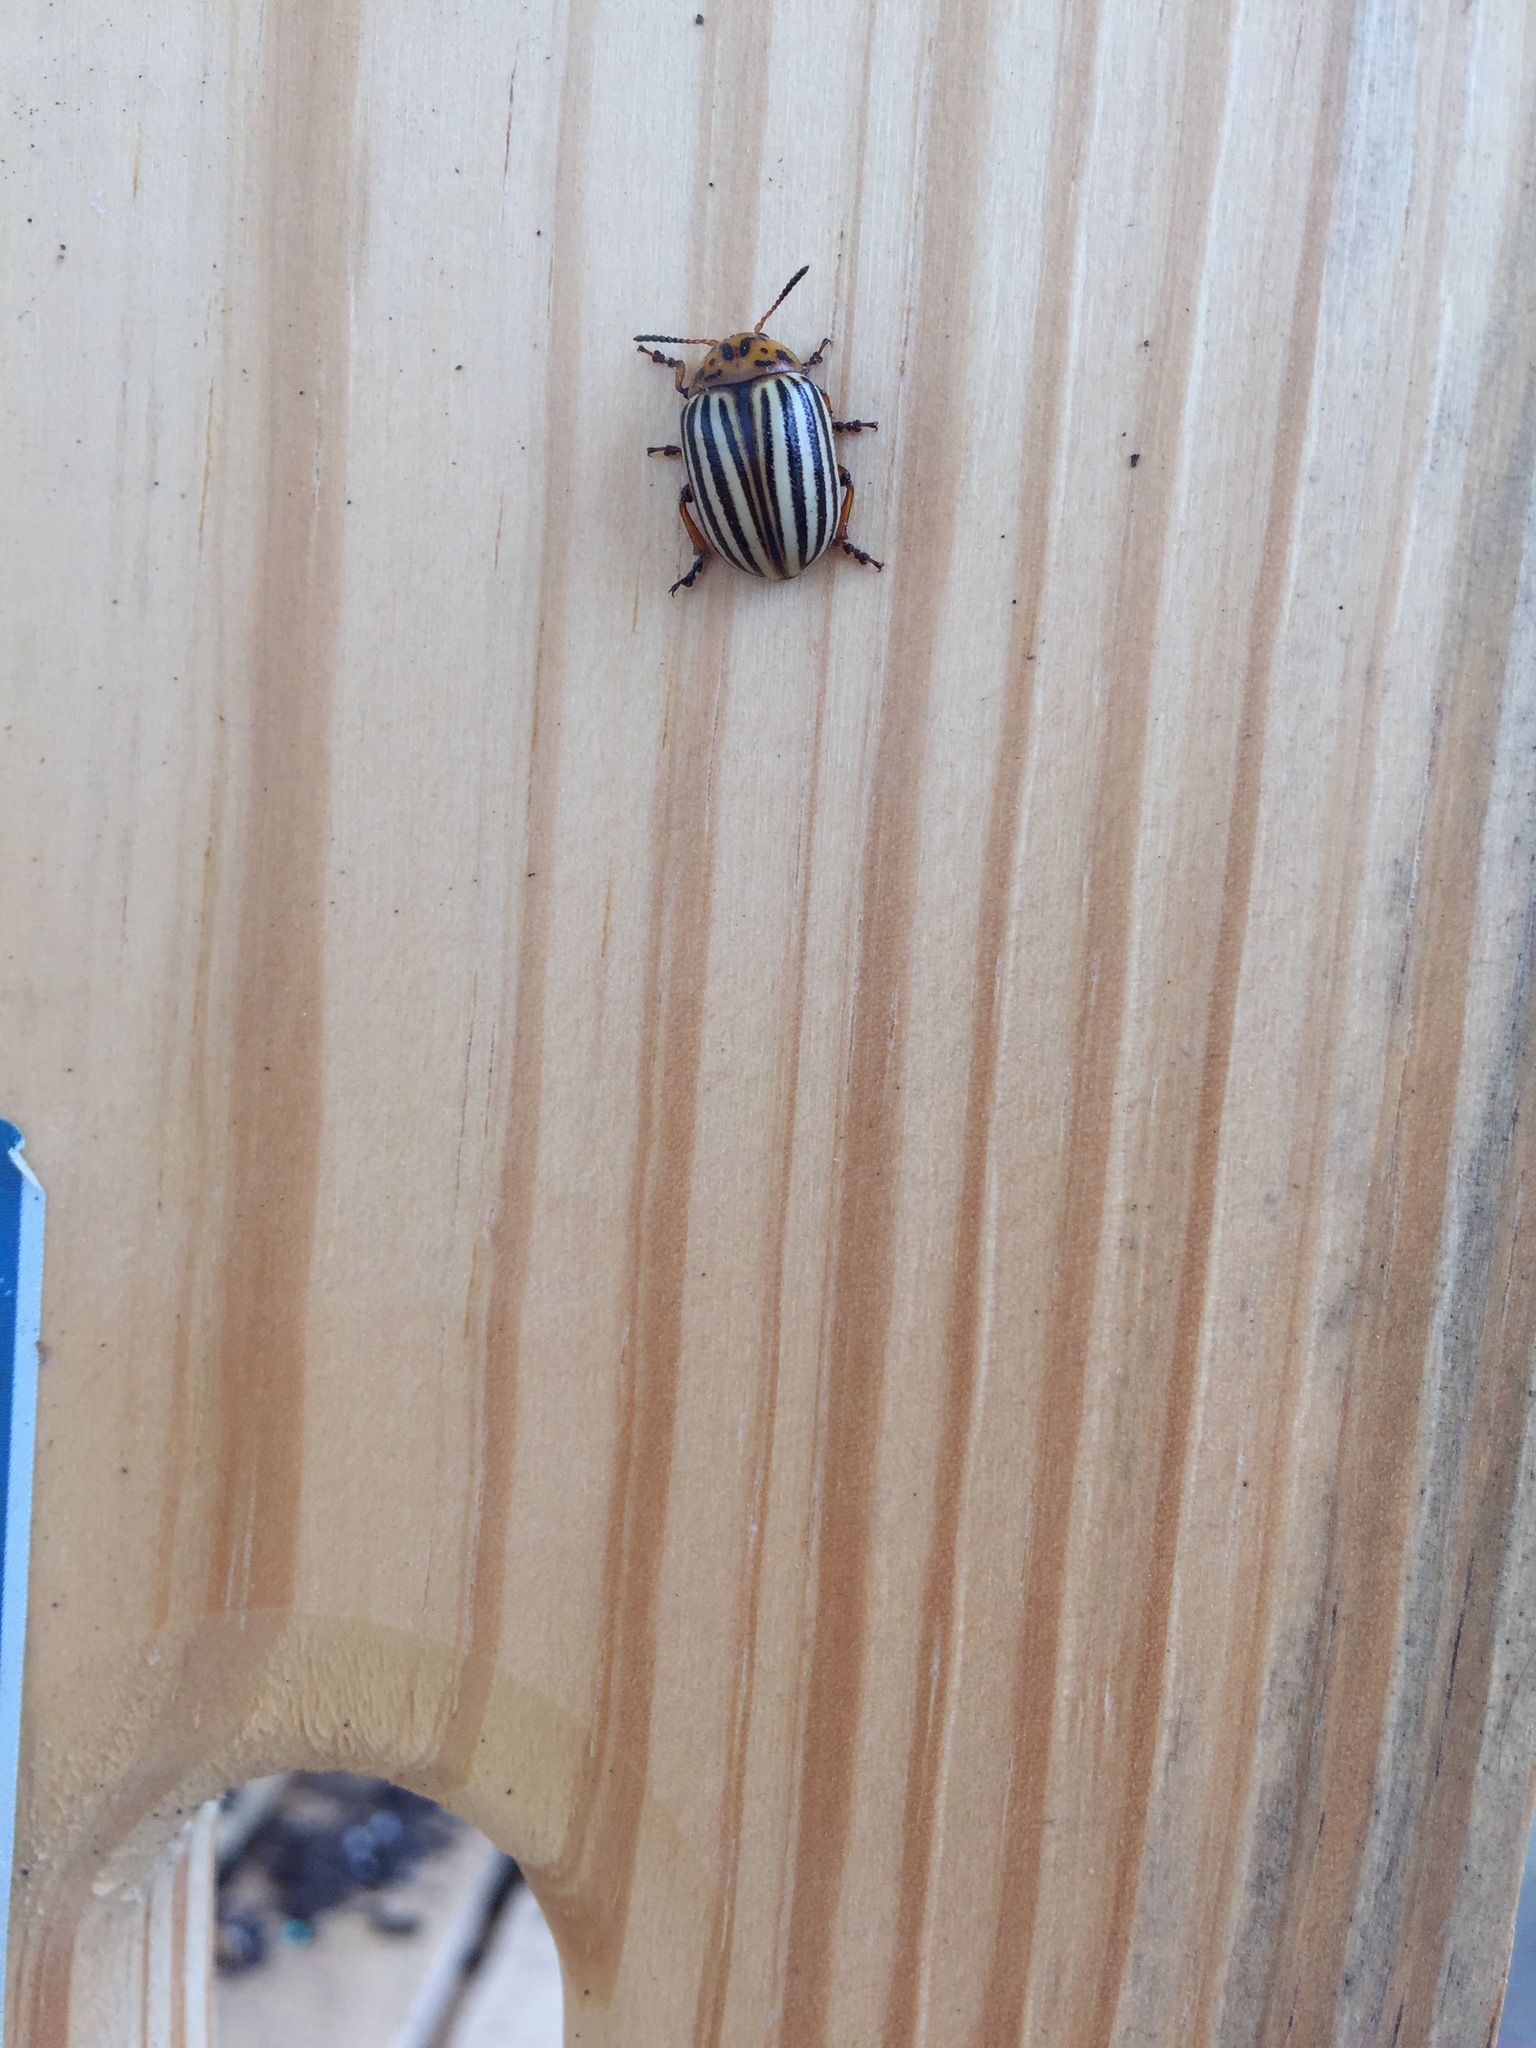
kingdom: Animalia
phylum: Arthropoda
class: Insecta
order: Coleoptera
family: Chrysomelidae
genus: Leptinotarsa
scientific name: Leptinotarsa decemlineata
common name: Colorado potato beetle
